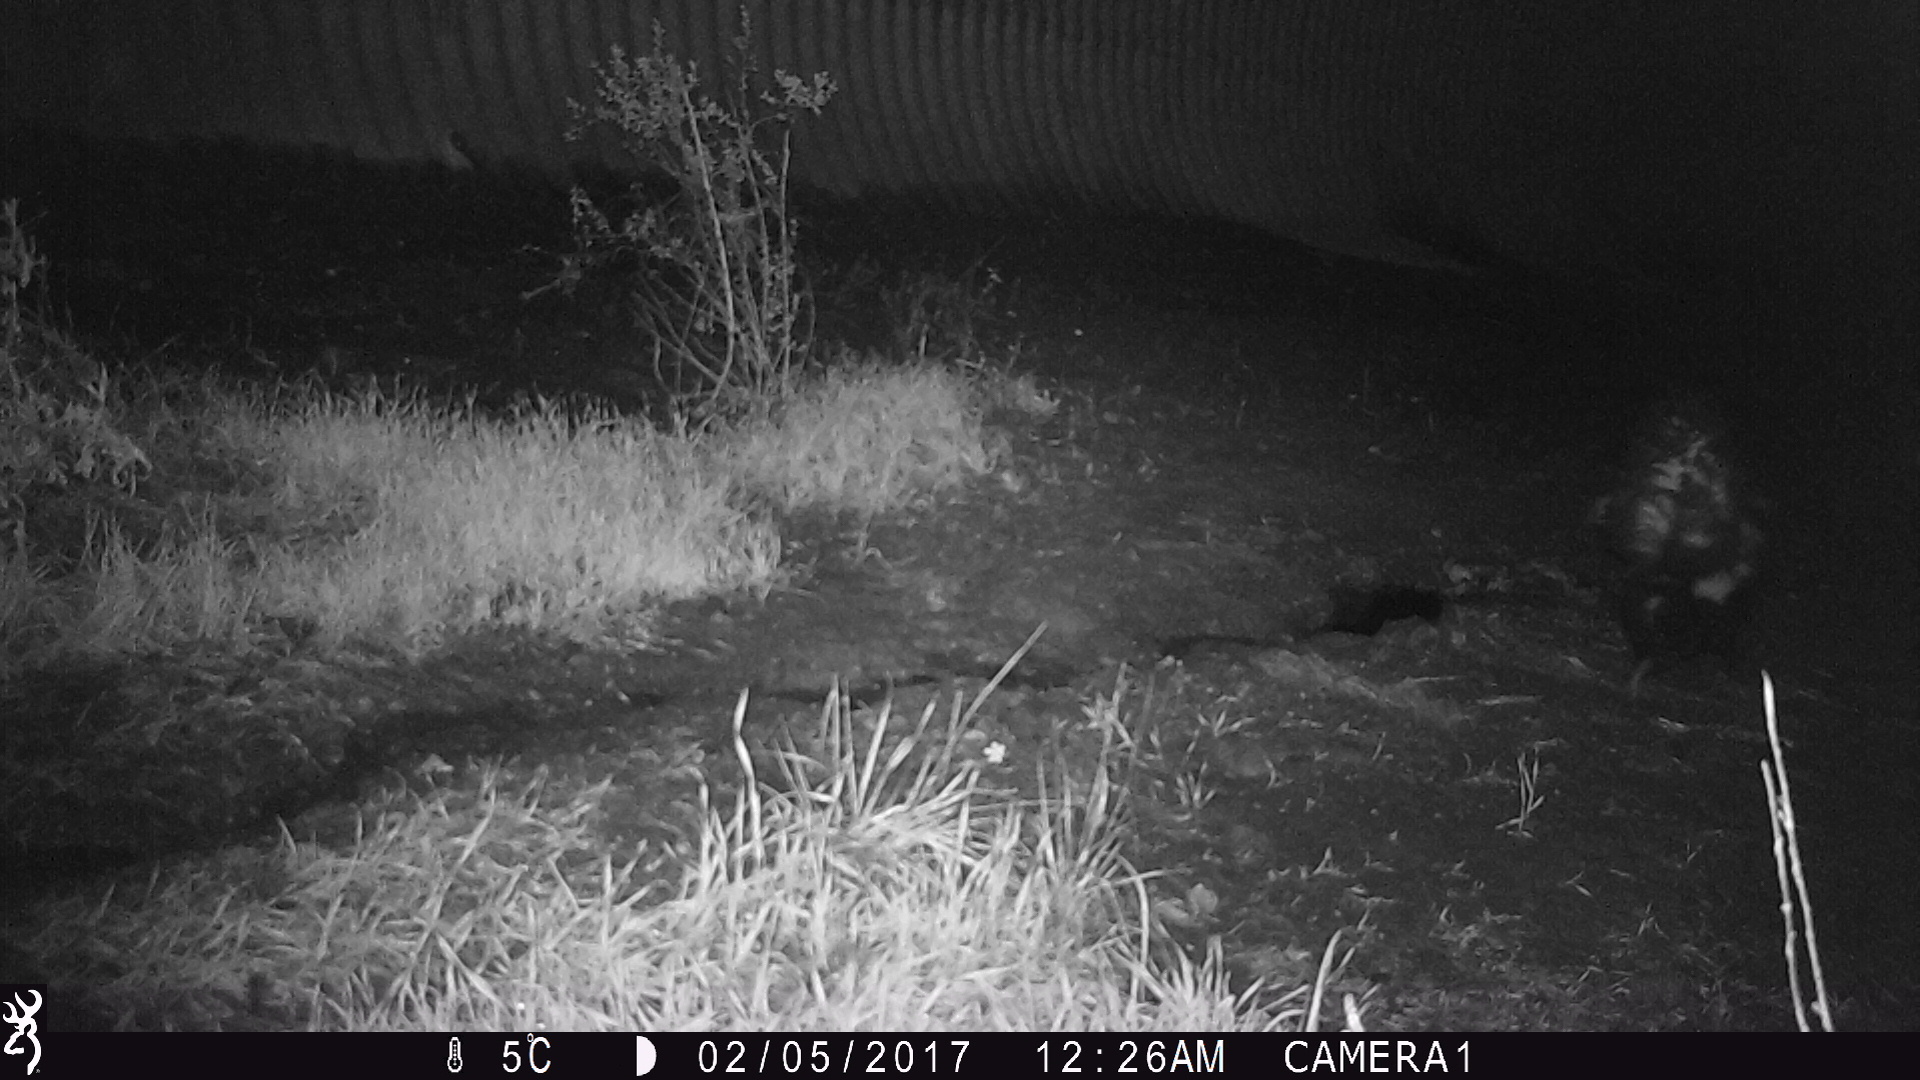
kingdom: Animalia
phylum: Chordata
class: Mammalia
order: Carnivora
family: Mephitidae
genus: Mephitis
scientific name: Mephitis mephitis
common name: Striped skunk
